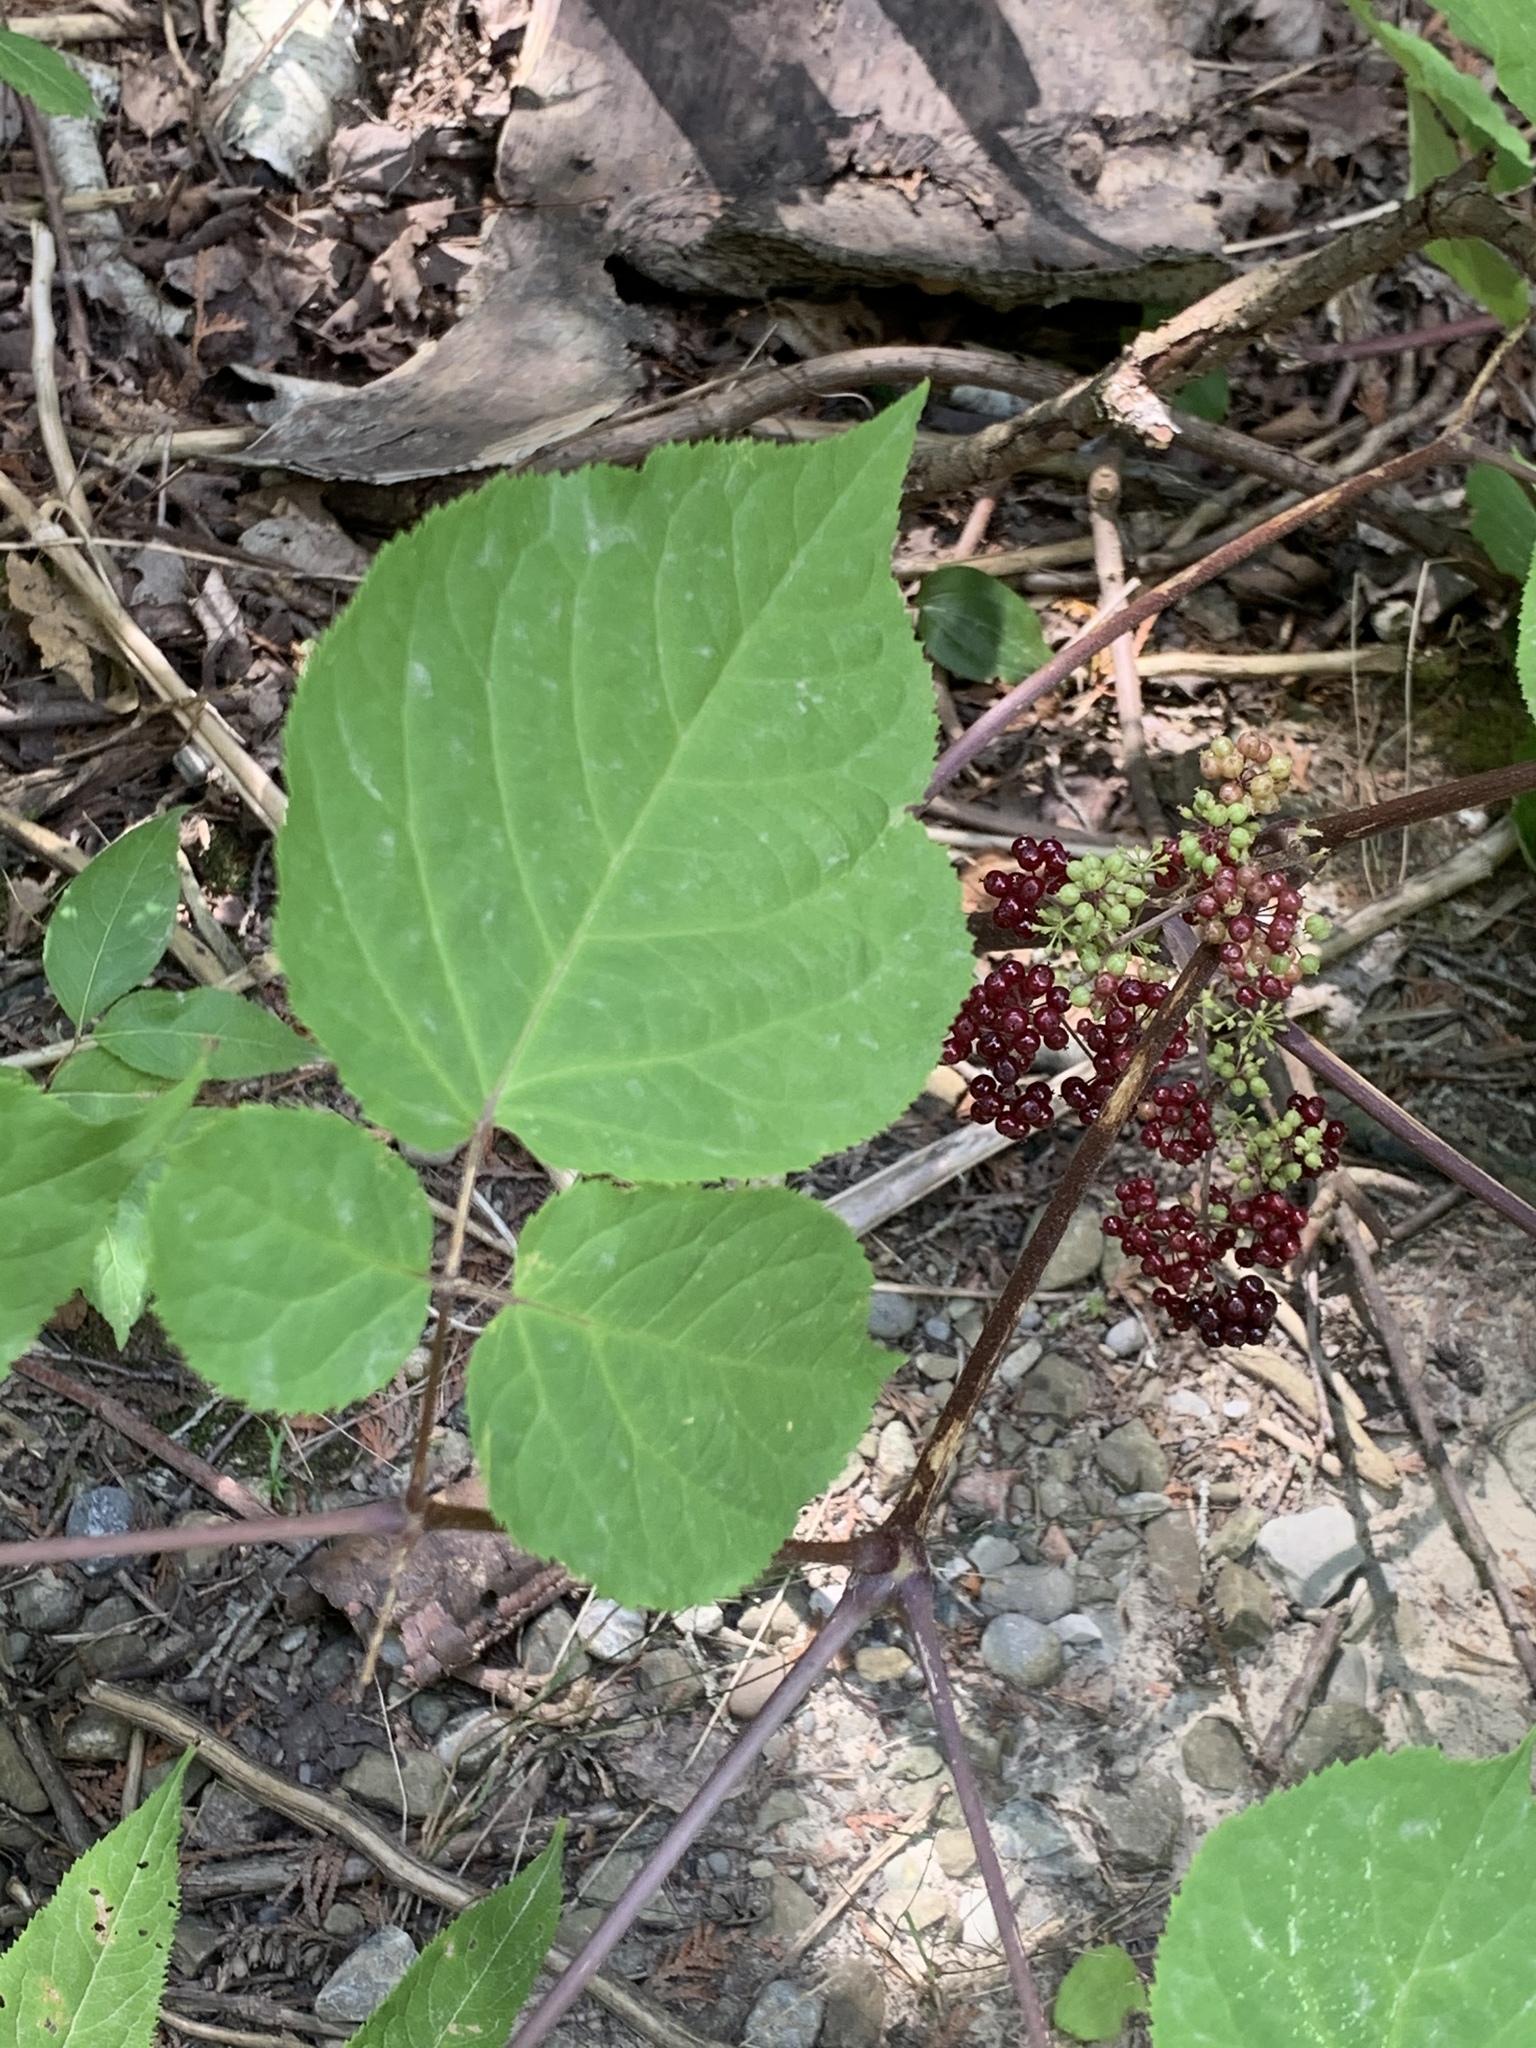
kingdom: Plantae
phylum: Tracheophyta
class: Magnoliopsida
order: Apiales
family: Araliaceae
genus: Aralia
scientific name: Aralia racemosa
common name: American-spikenard
